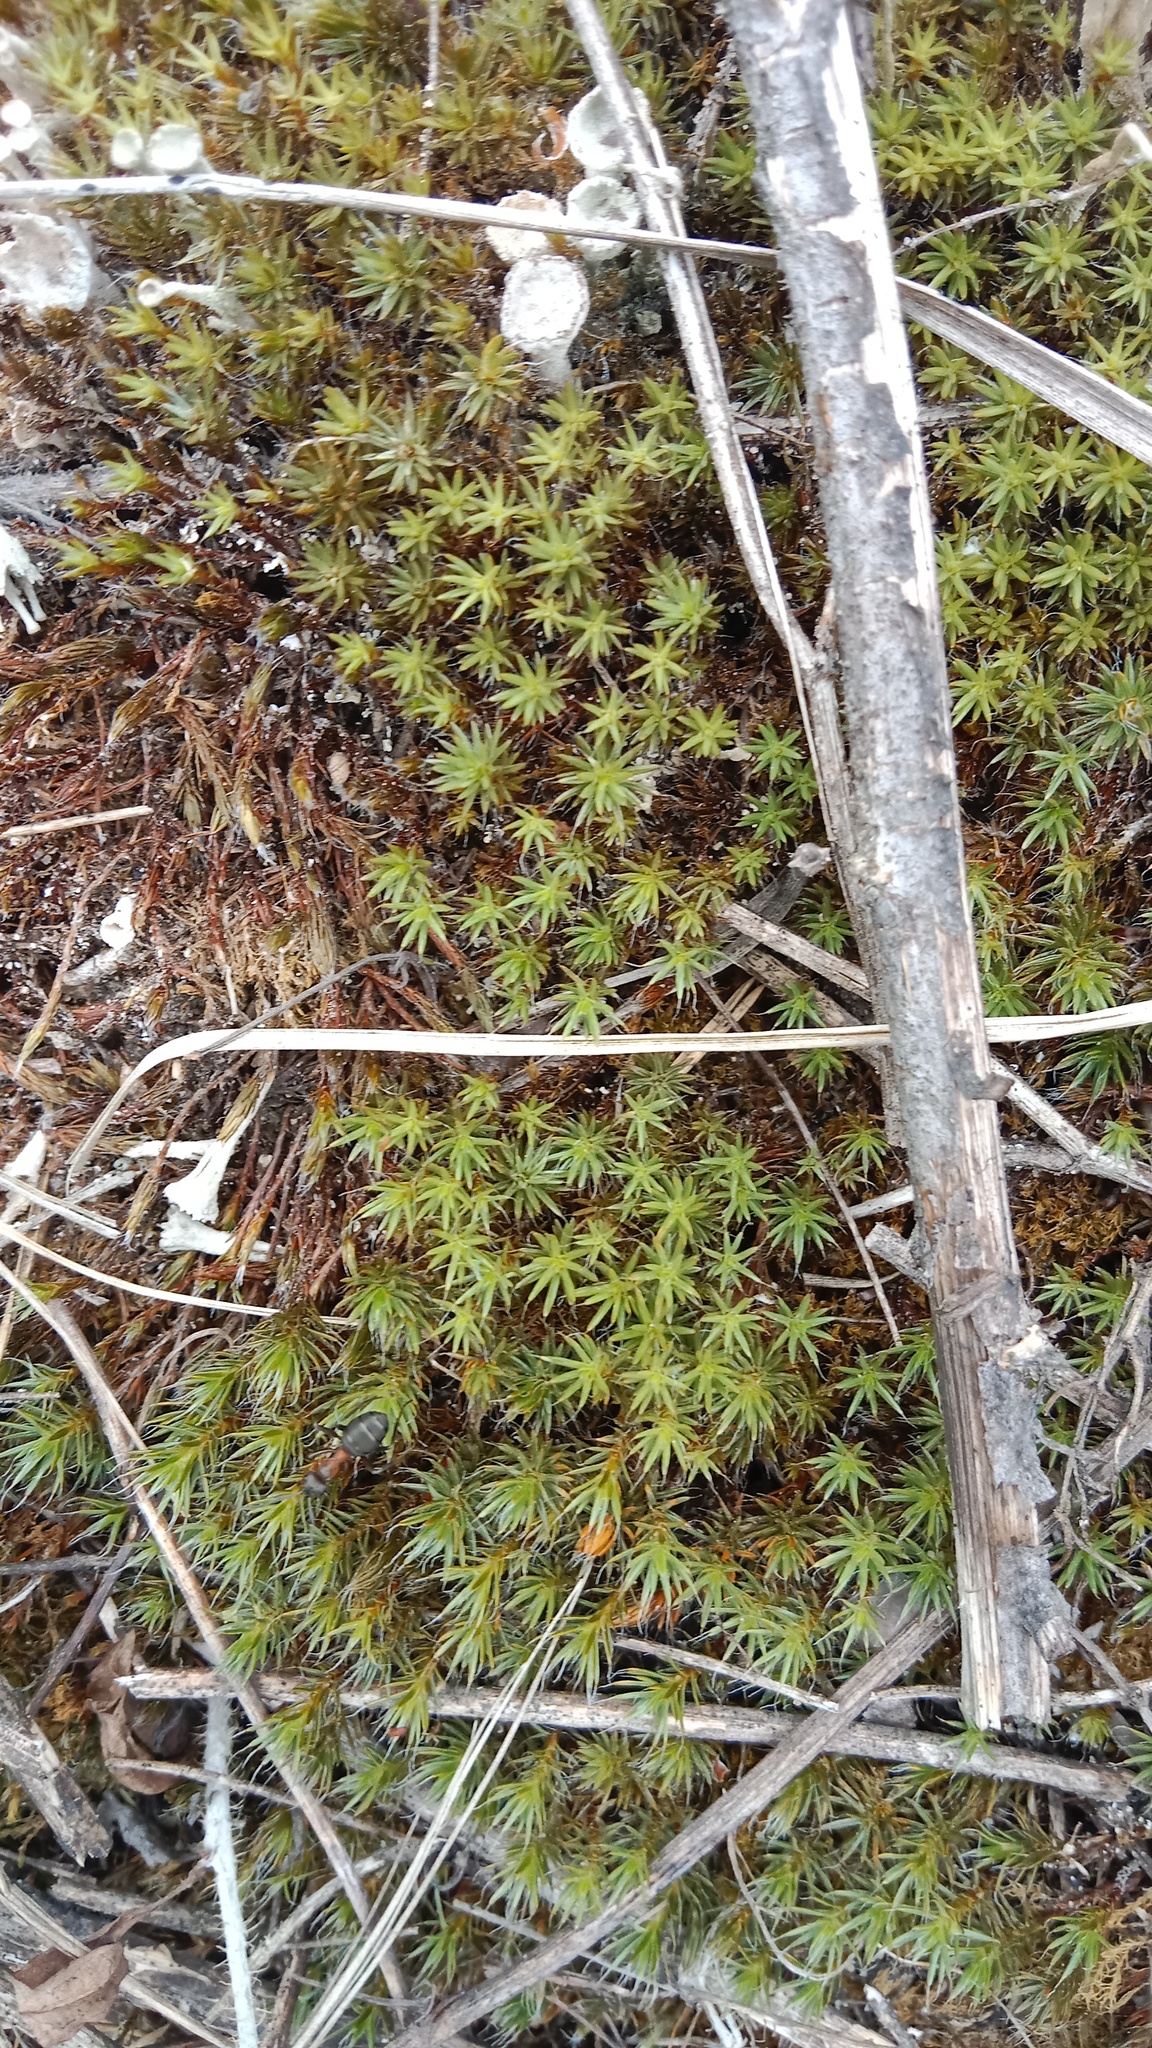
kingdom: Plantae
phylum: Bryophyta
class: Polytrichopsida
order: Polytrichales
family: Polytrichaceae
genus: Polytrichum
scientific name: Polytrichum piliferum
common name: Bristly haircap
